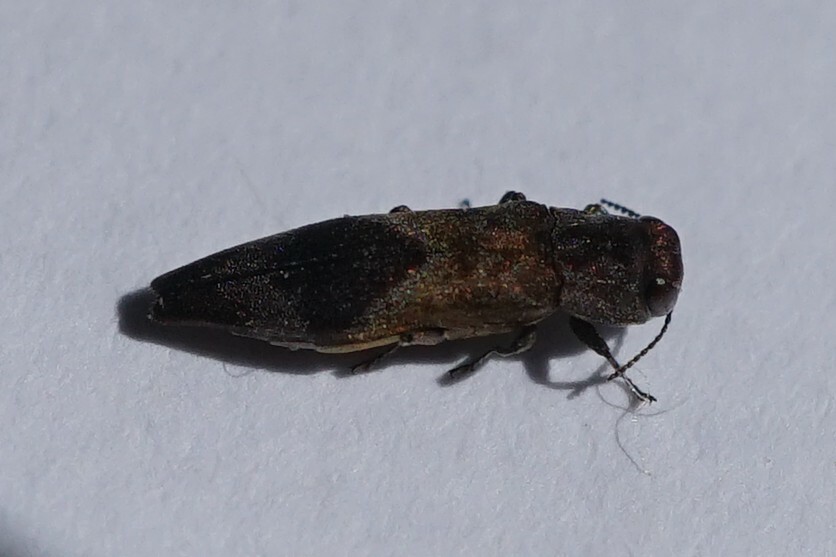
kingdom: Animalia
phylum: Arthropoda
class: Insecta
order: Coleoptera
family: Buprestidae
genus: Agrilus
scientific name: Agrilus discalis
